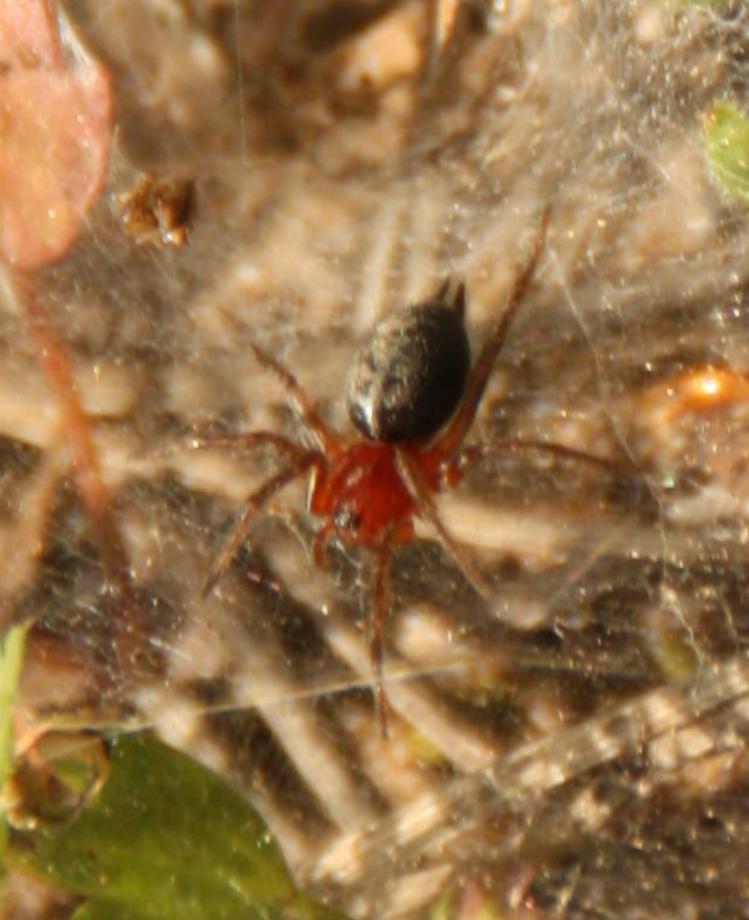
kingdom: Animalia
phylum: Arthropoda
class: Arachnida
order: Araneae
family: Agelenidae
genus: Agelena
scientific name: Agelena labyrinthica
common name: Labyrinth spider
